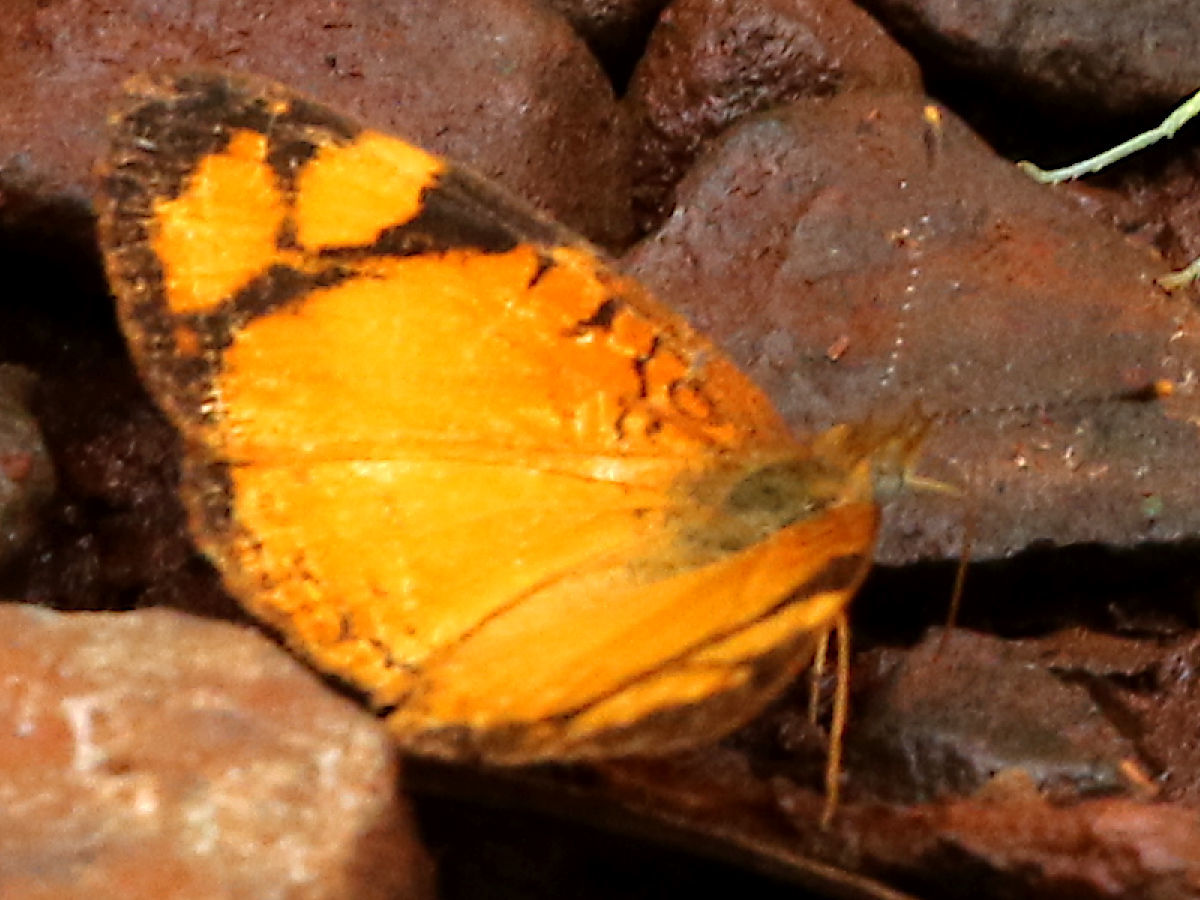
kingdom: Animalia
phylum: Arthropoda
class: Insecta
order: Lepidoptera
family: Nymphalidae
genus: Tegosa
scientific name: Tegosa claudina
